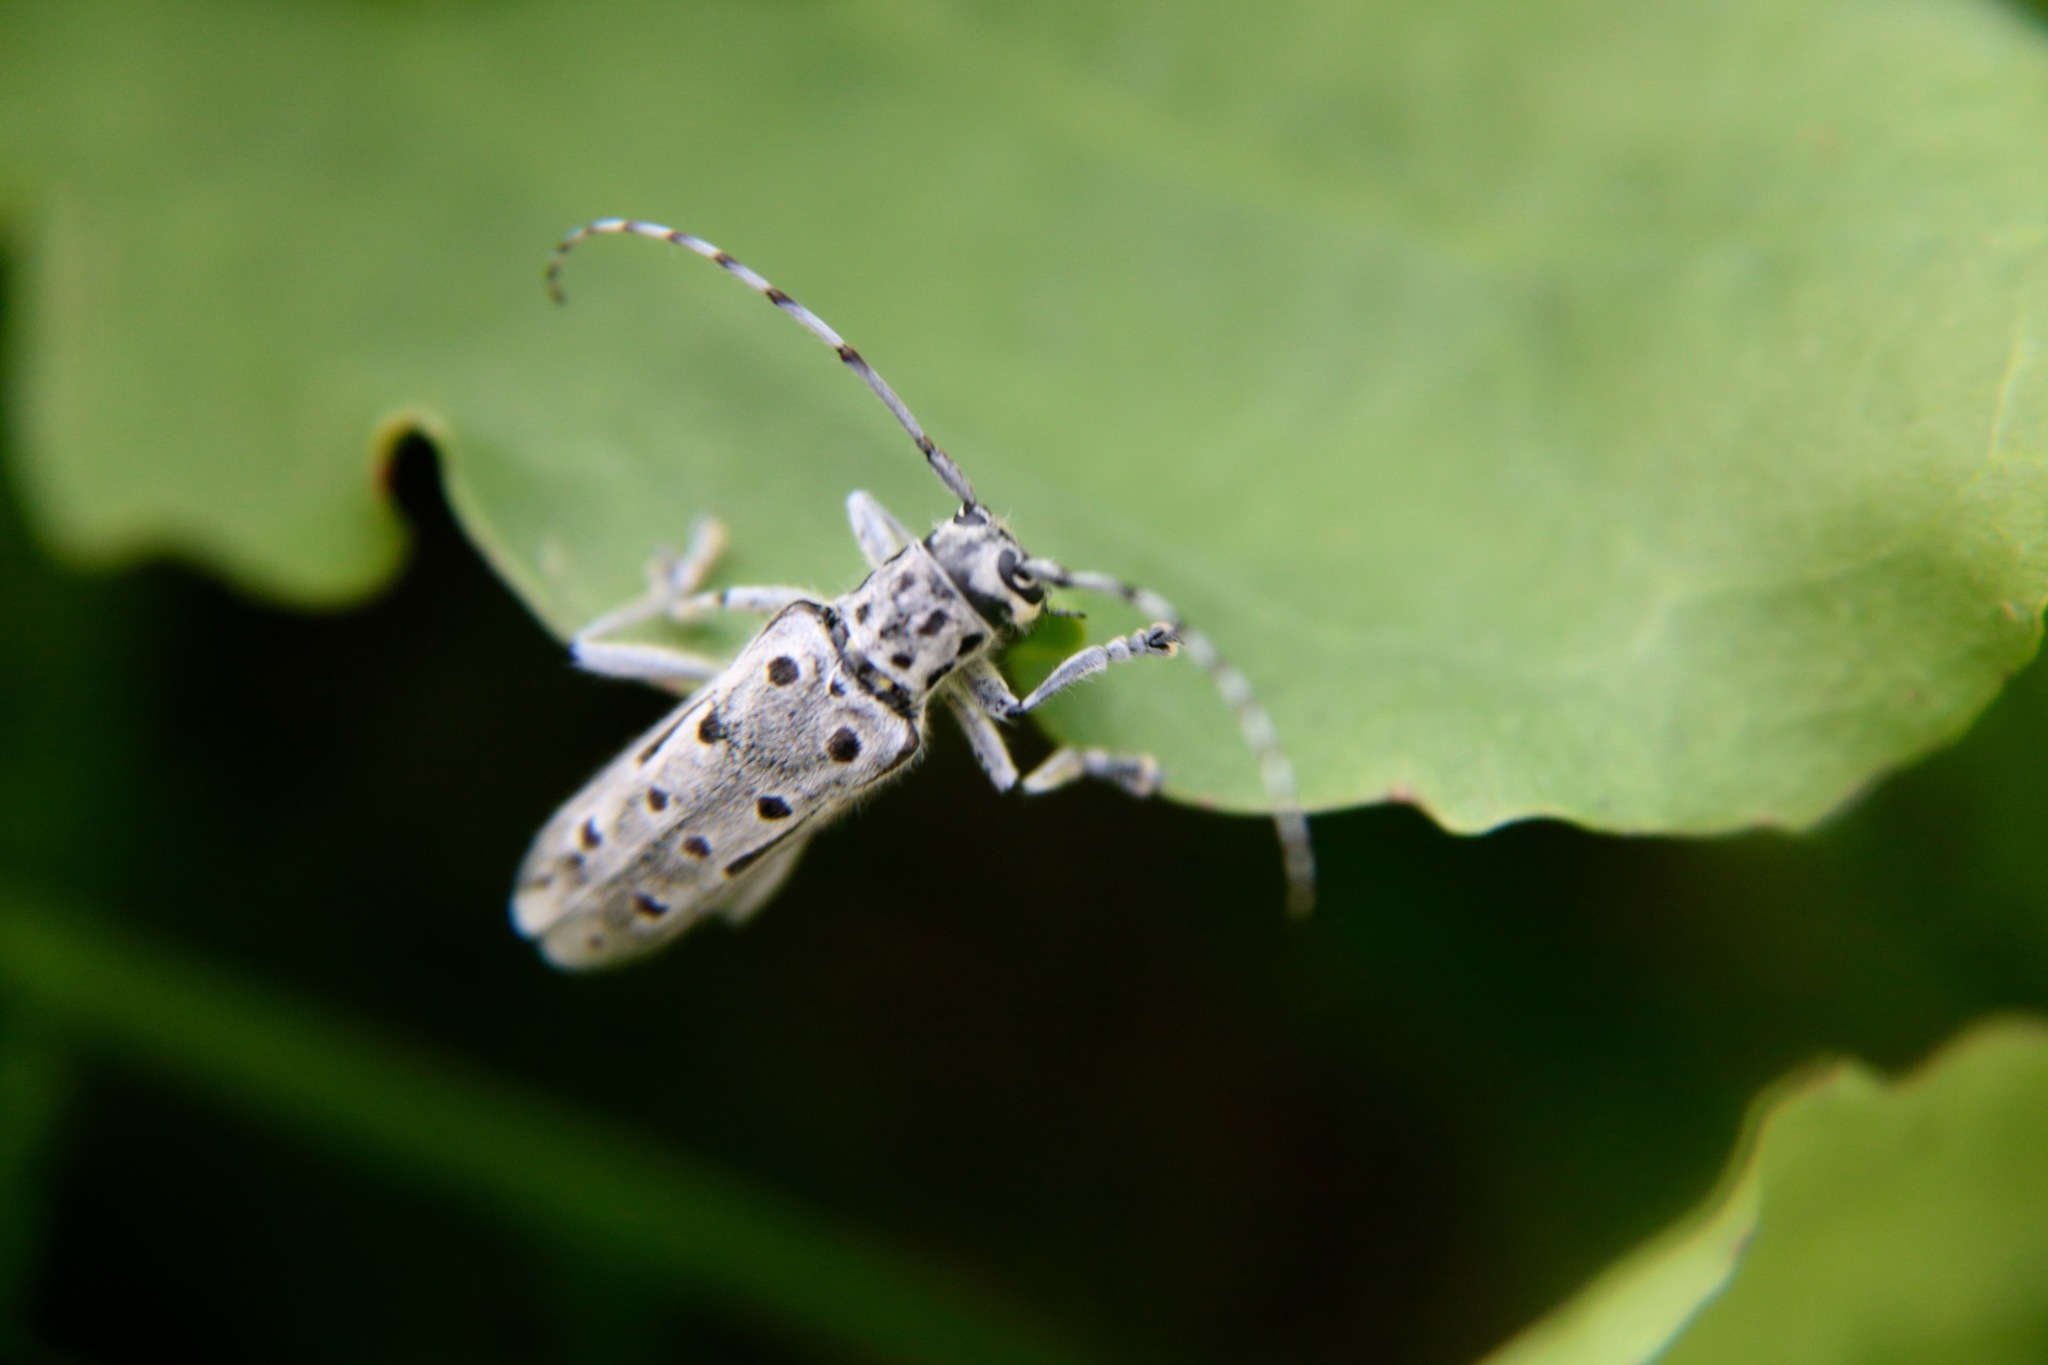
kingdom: Animalia
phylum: Arthropoda
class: Insecta
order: Coleoptera
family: Cerambycidae
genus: Saperda
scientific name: Saperda perforata
